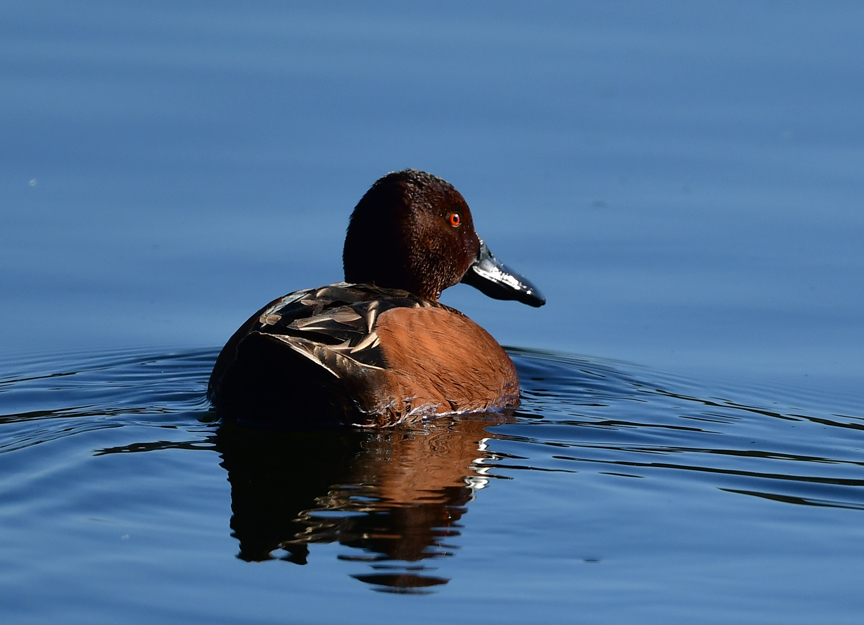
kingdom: Animalia
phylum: Chordata
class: Aves
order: Anseriformes
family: Anatidae
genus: Spatula
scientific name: Spatula cyanoptera
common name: Cinnamon teal
